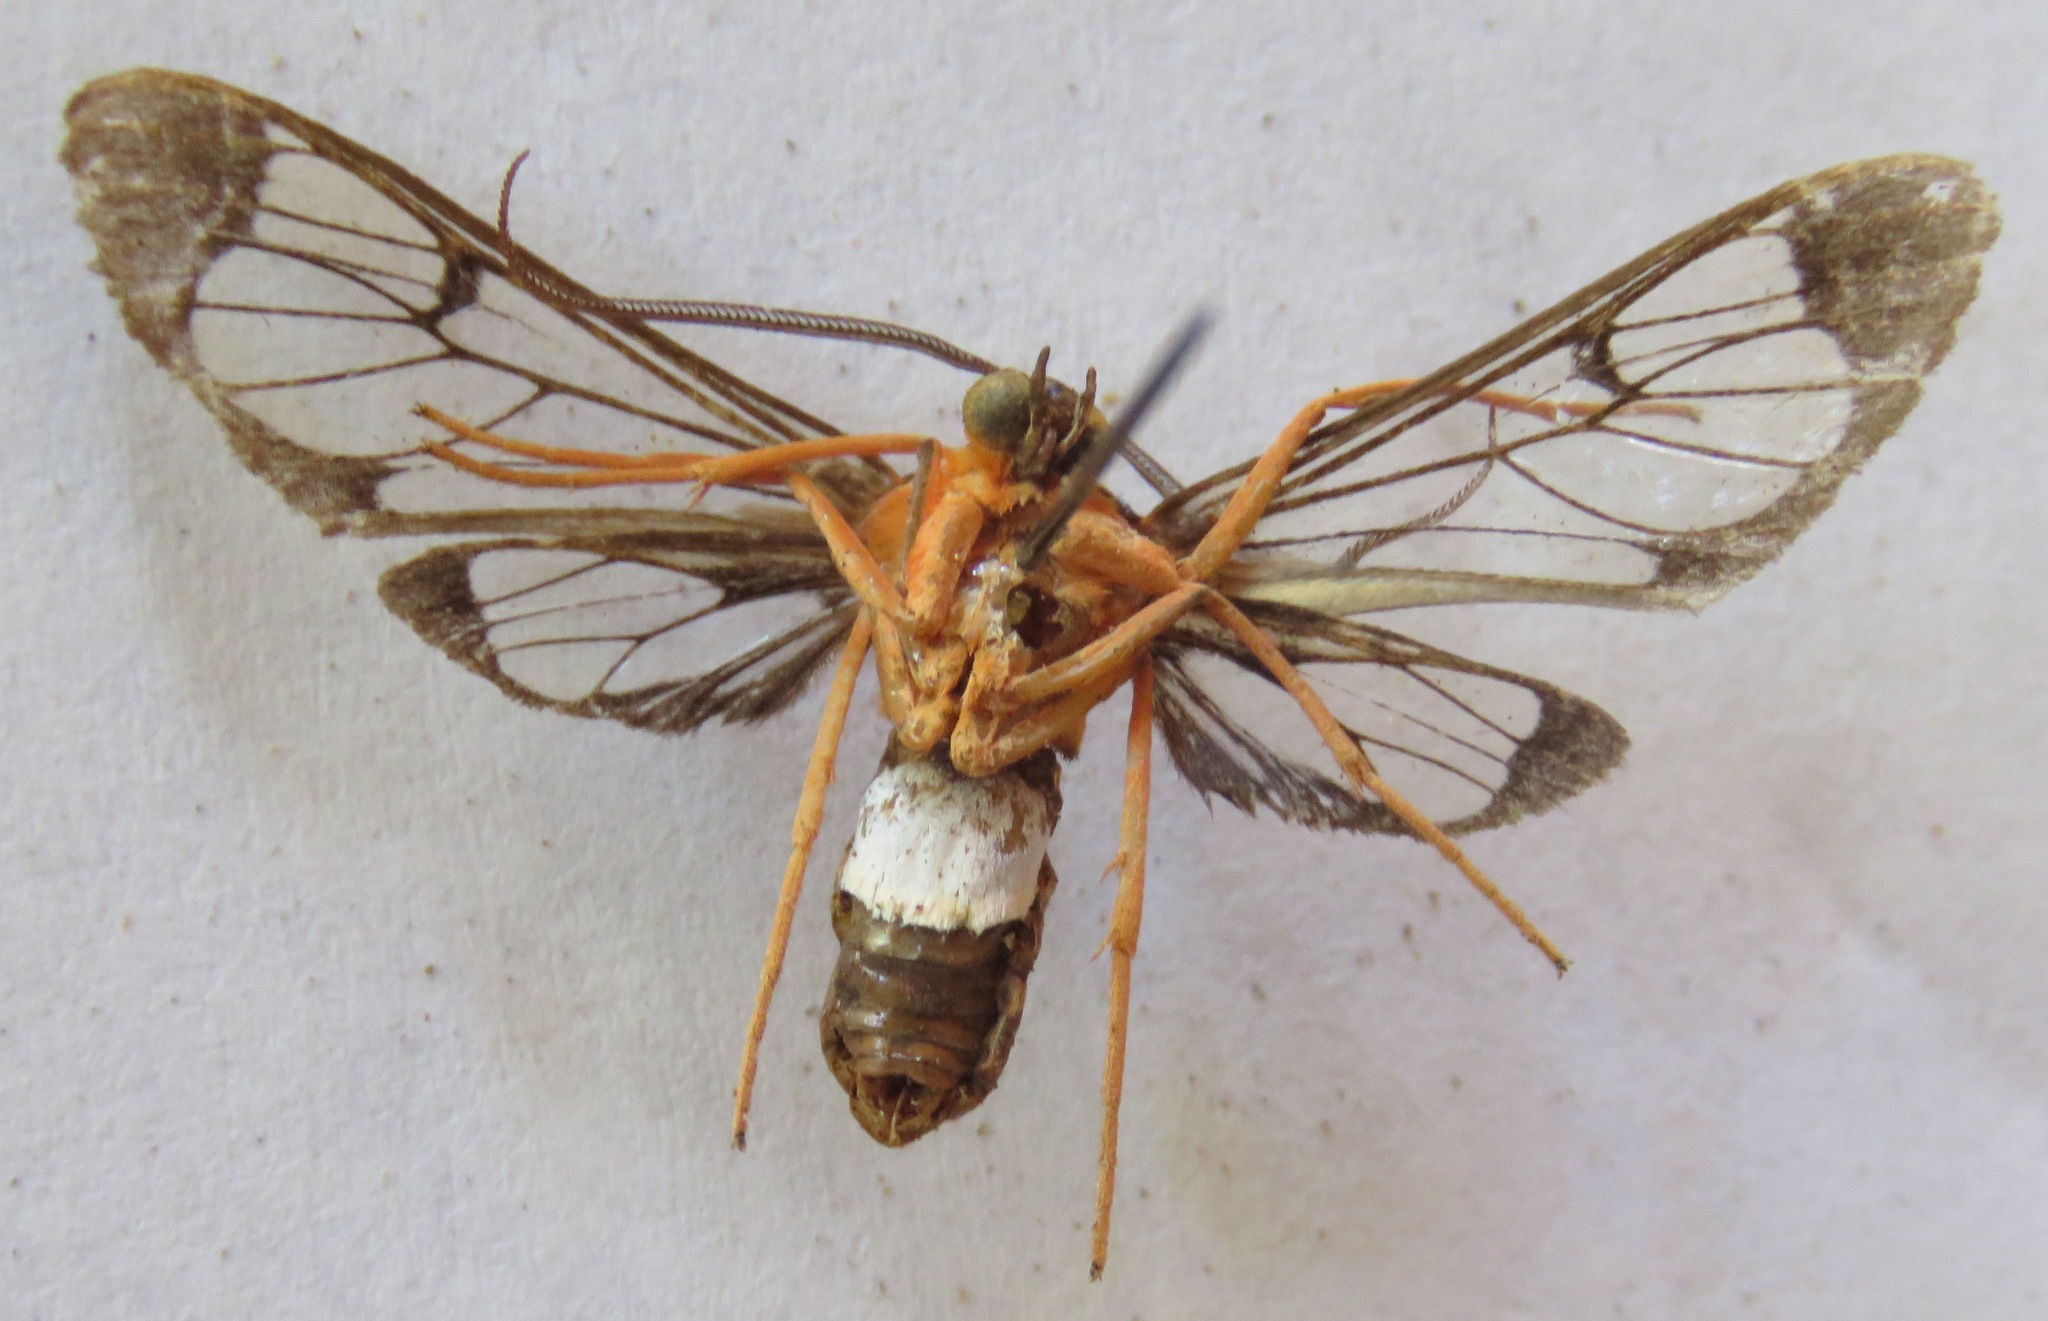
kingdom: Animalia
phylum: Arthropoda
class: Insecta
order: Lepidoptera
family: Erebidae
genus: Cosmosoma
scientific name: Cosmosoma sectinota
